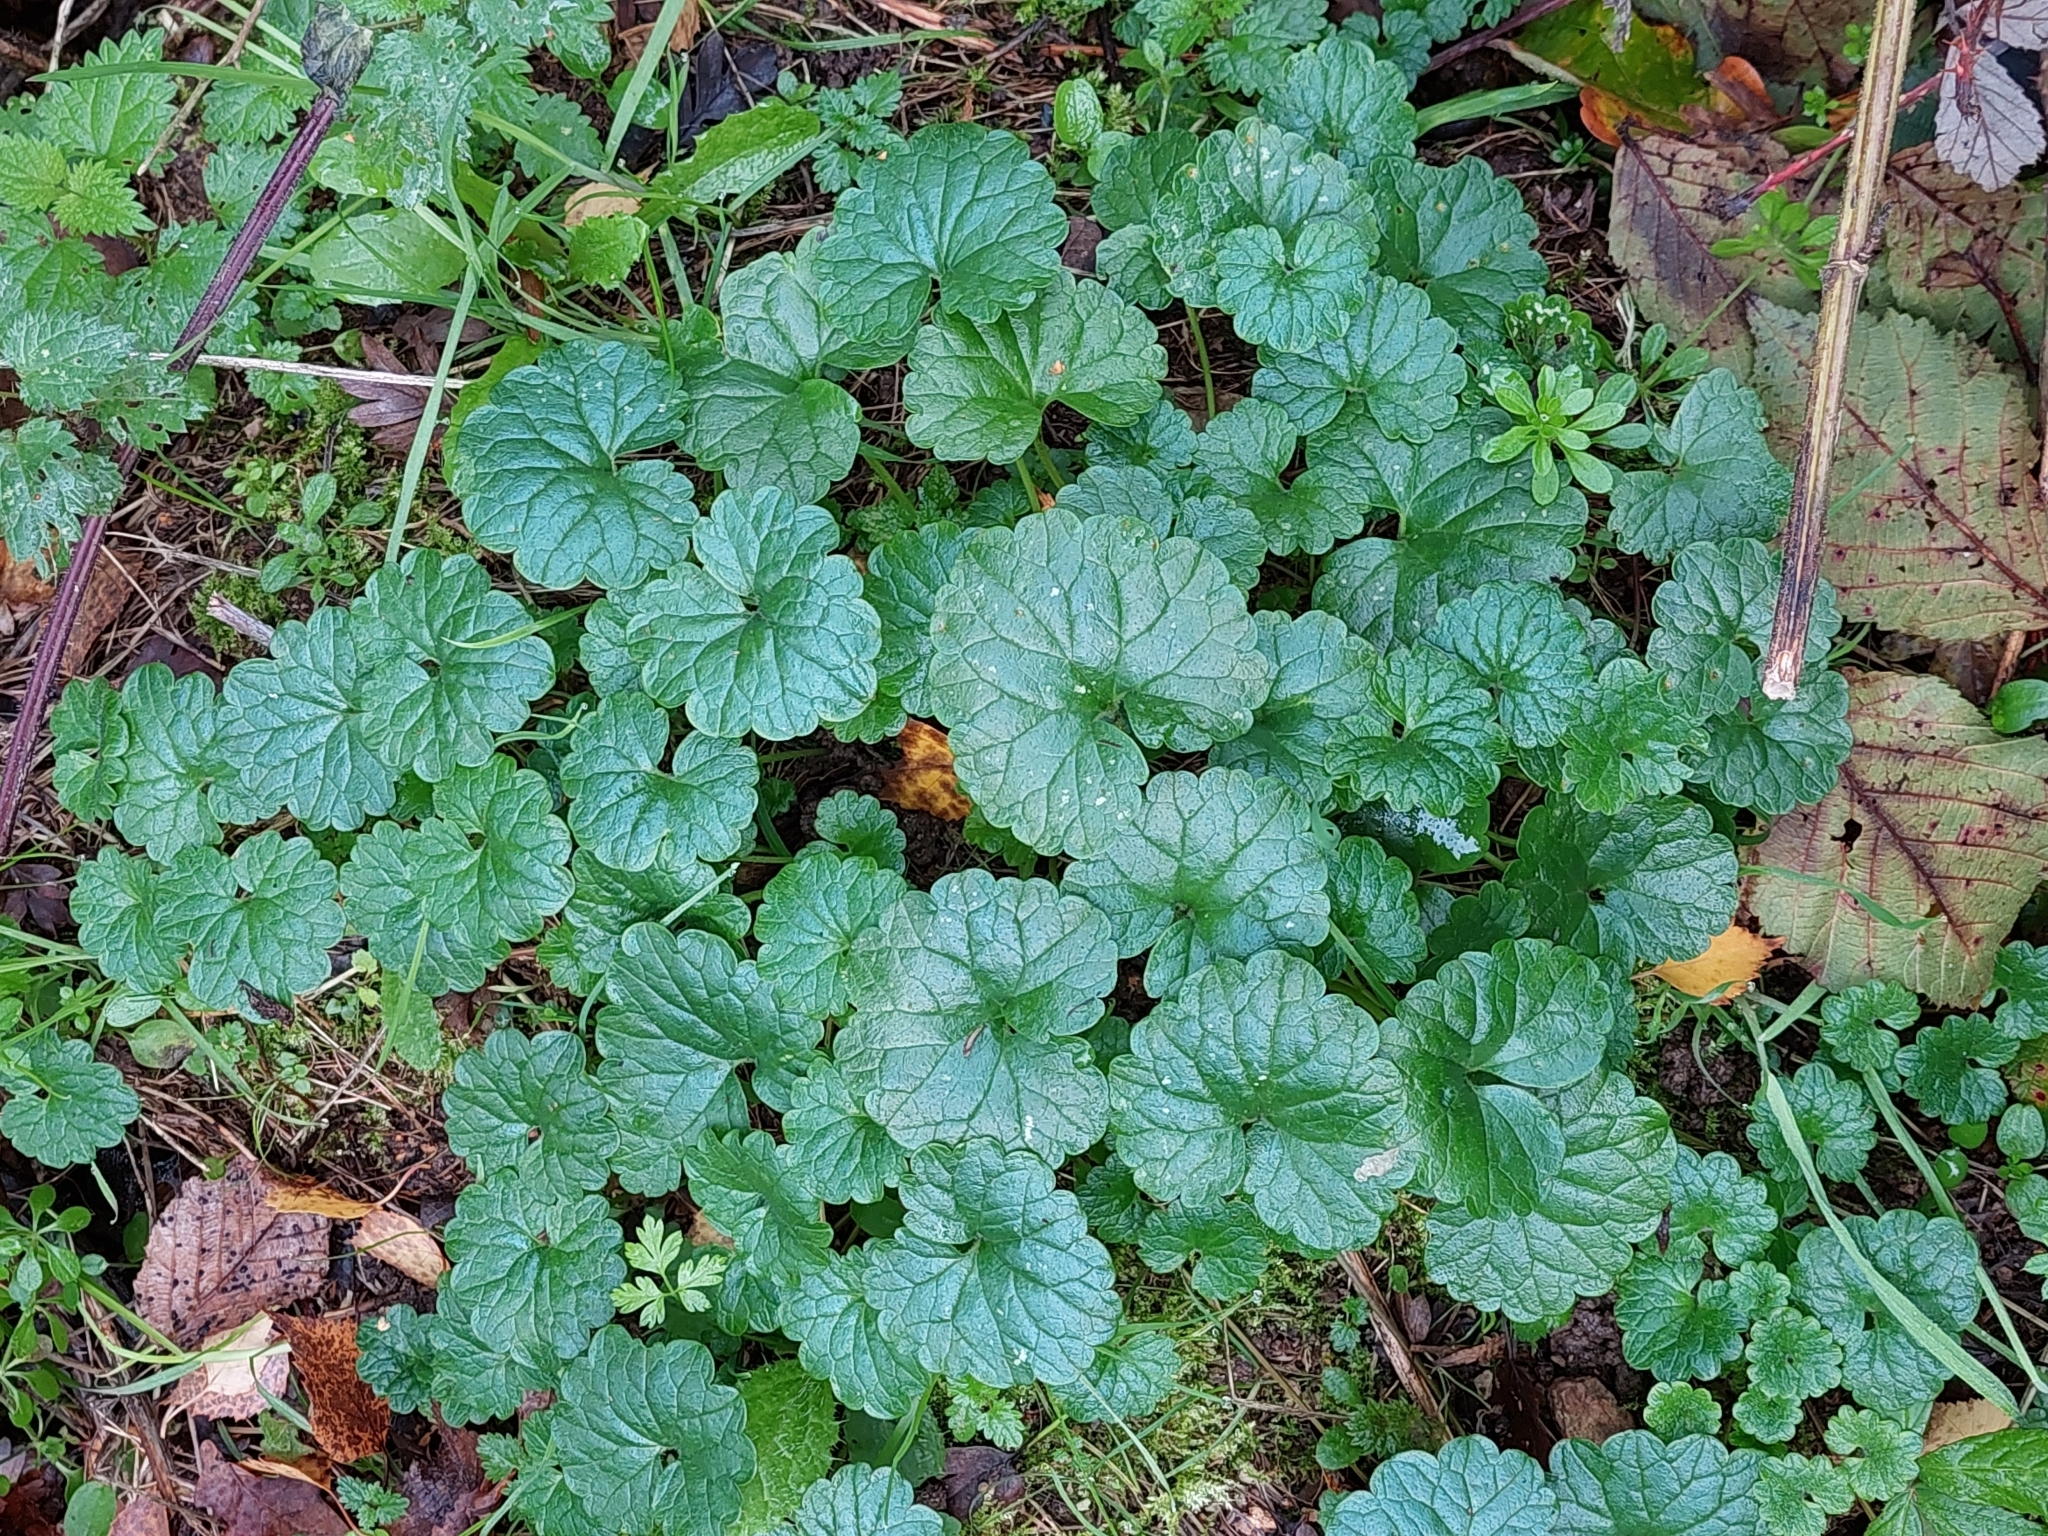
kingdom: Plantae
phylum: Tracheophyta
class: Magnoliopsida
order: Lamiales
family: Lamiaceae
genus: Glechoma
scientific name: Glechoma hederacea
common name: Ground ivy
